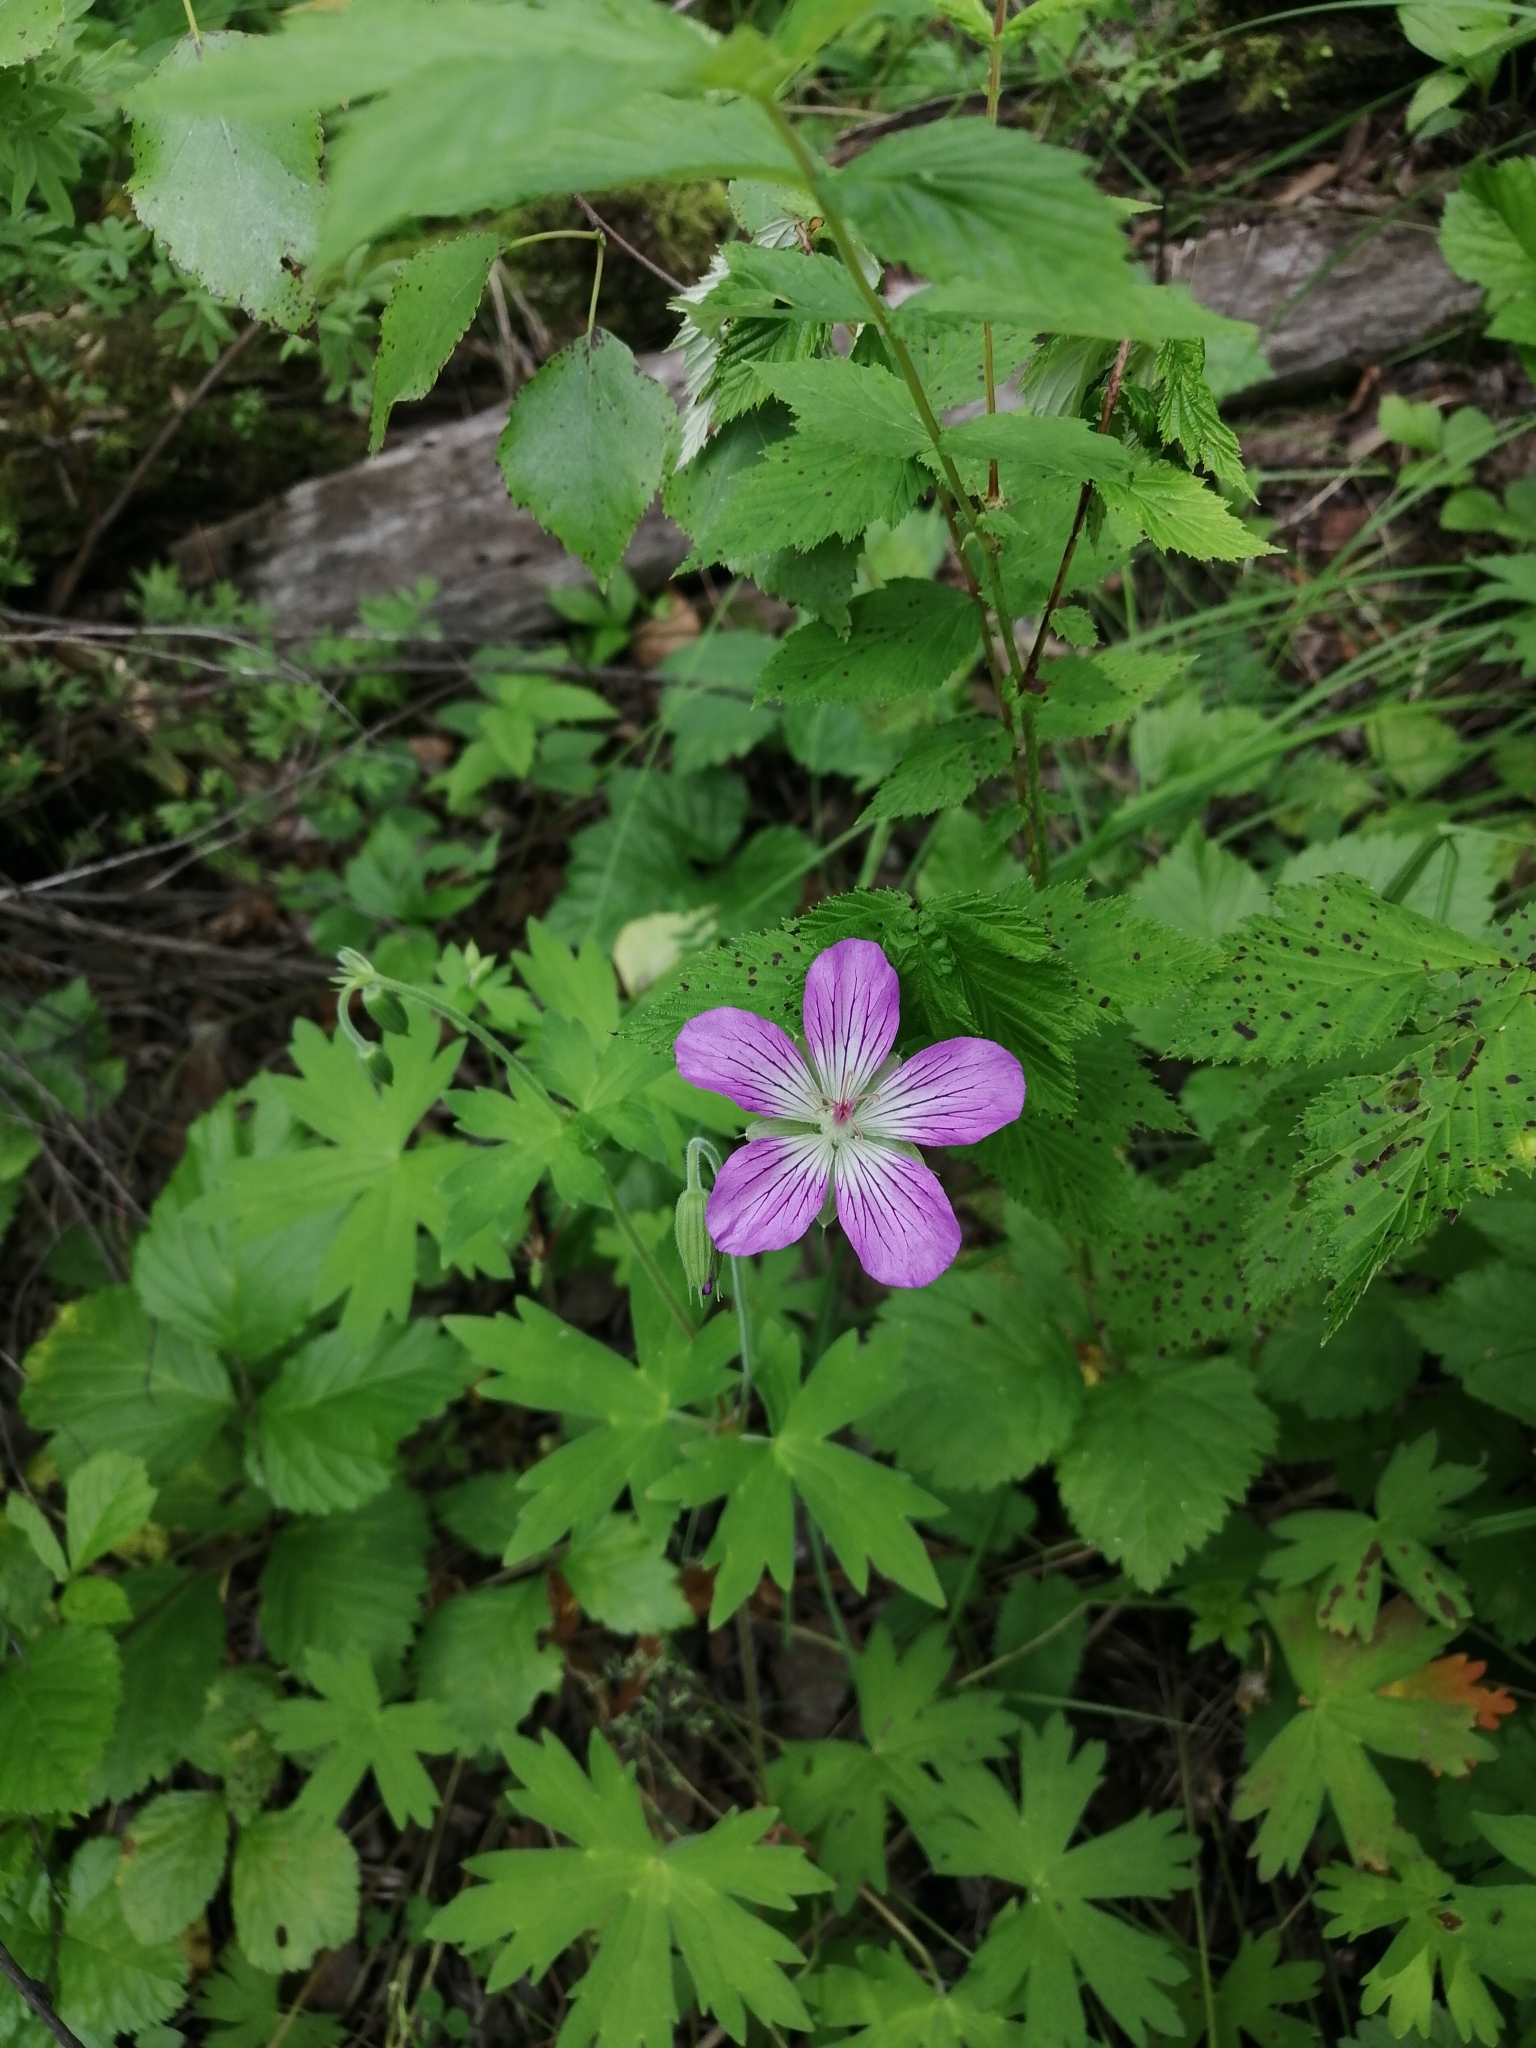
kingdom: Plantae
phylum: Tracheophyta
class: Magnoliopsida
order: Geraniales
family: Geraniaceae
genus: Geranium
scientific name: Geranium wlassovianum
